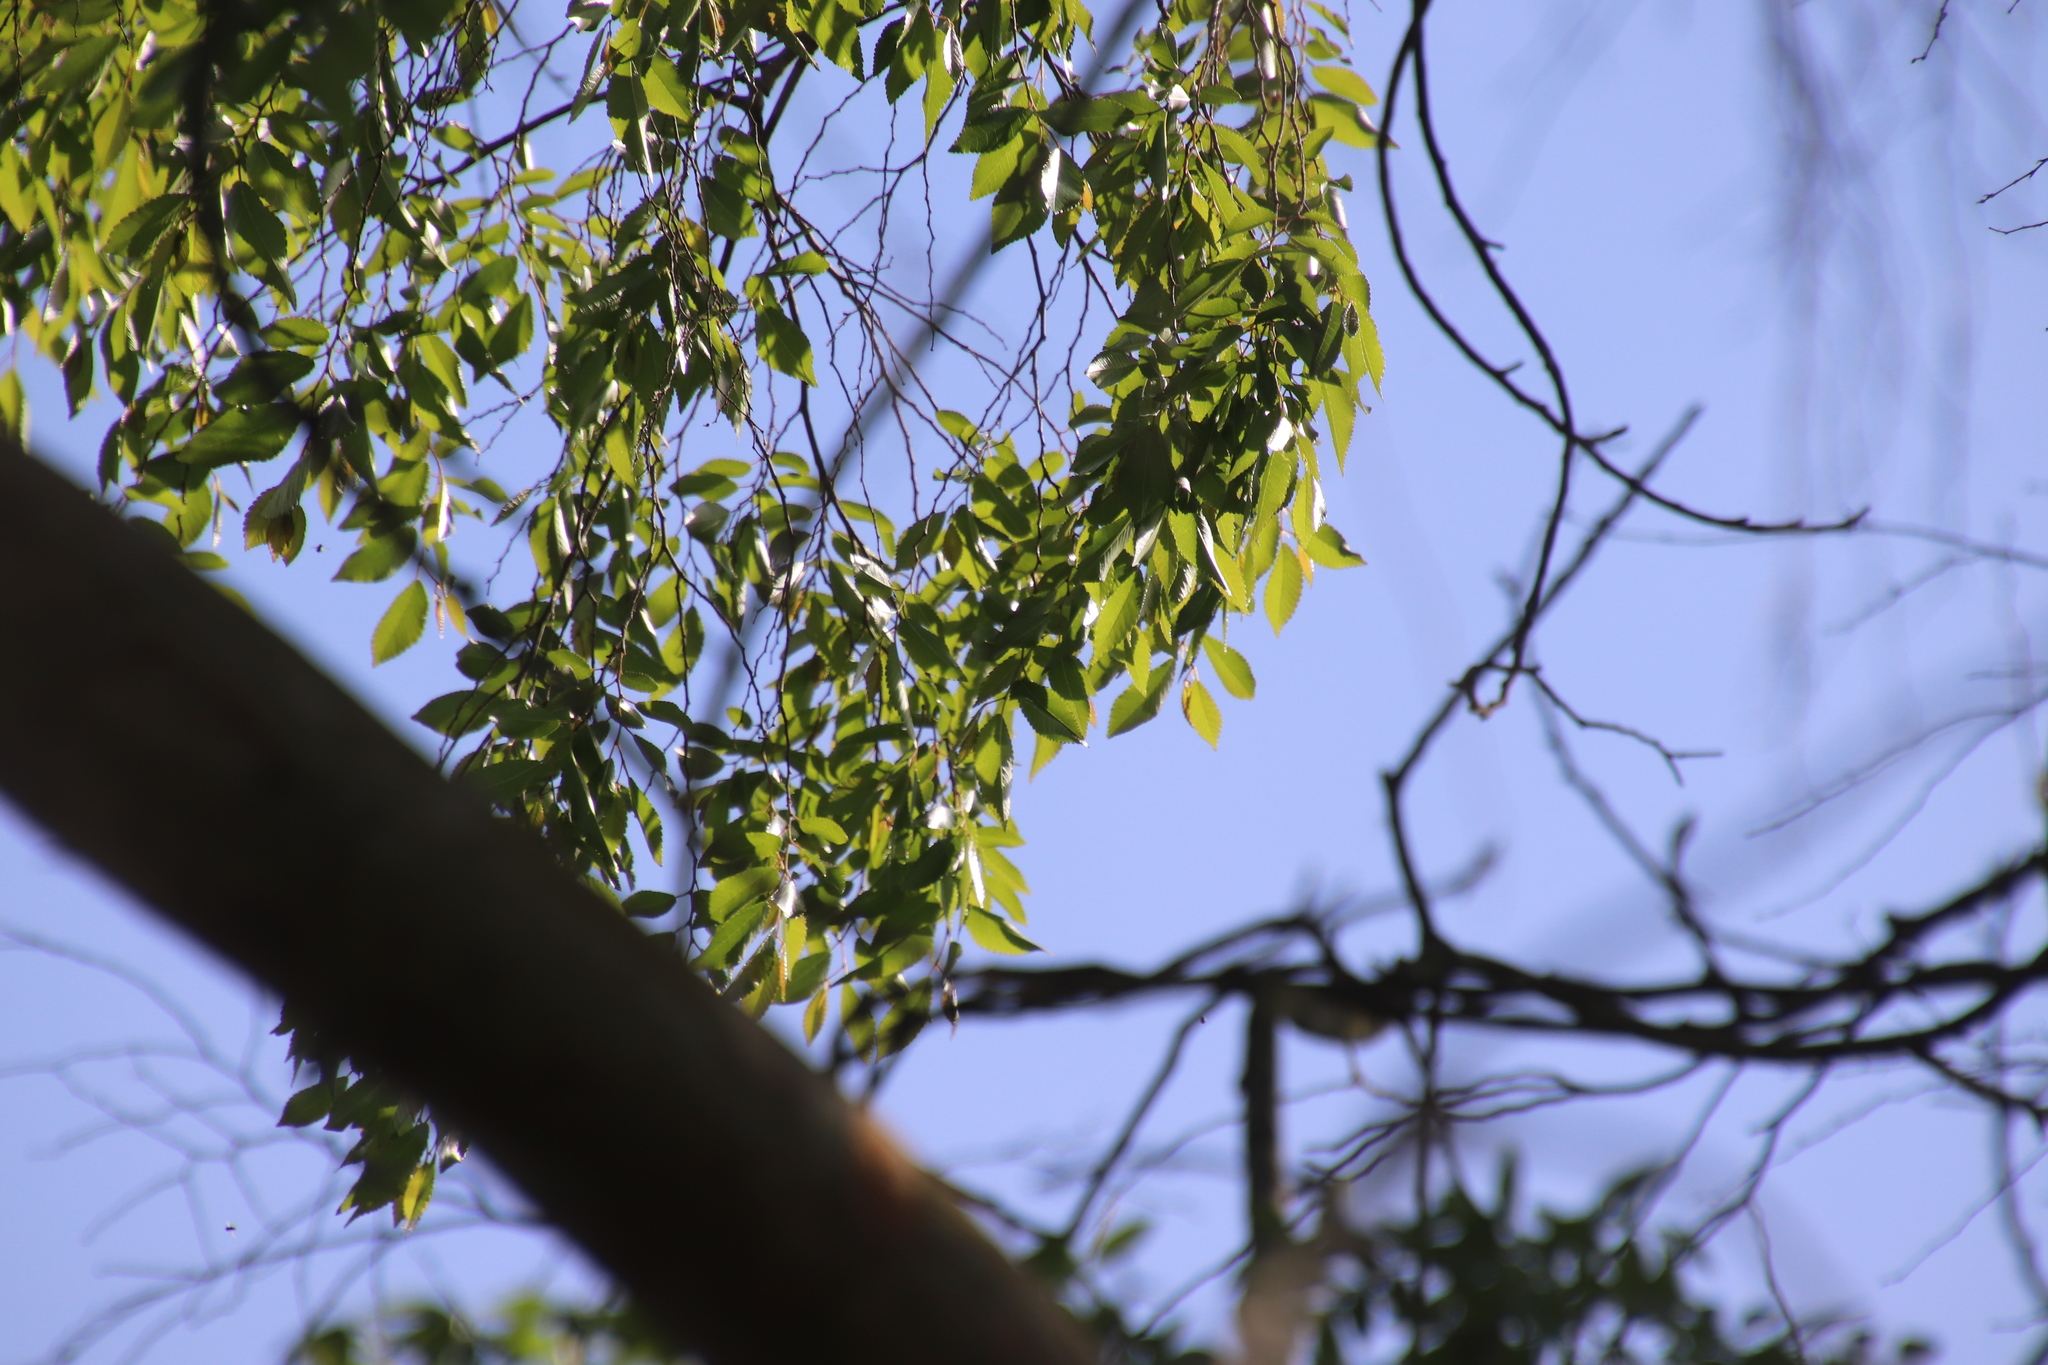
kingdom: Plantae
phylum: Tracheophyta
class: Magnoliopsida
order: Rosales
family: Ulmaceae
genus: Ulmus
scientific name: Ulmus parvifolia
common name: Chinese elm
